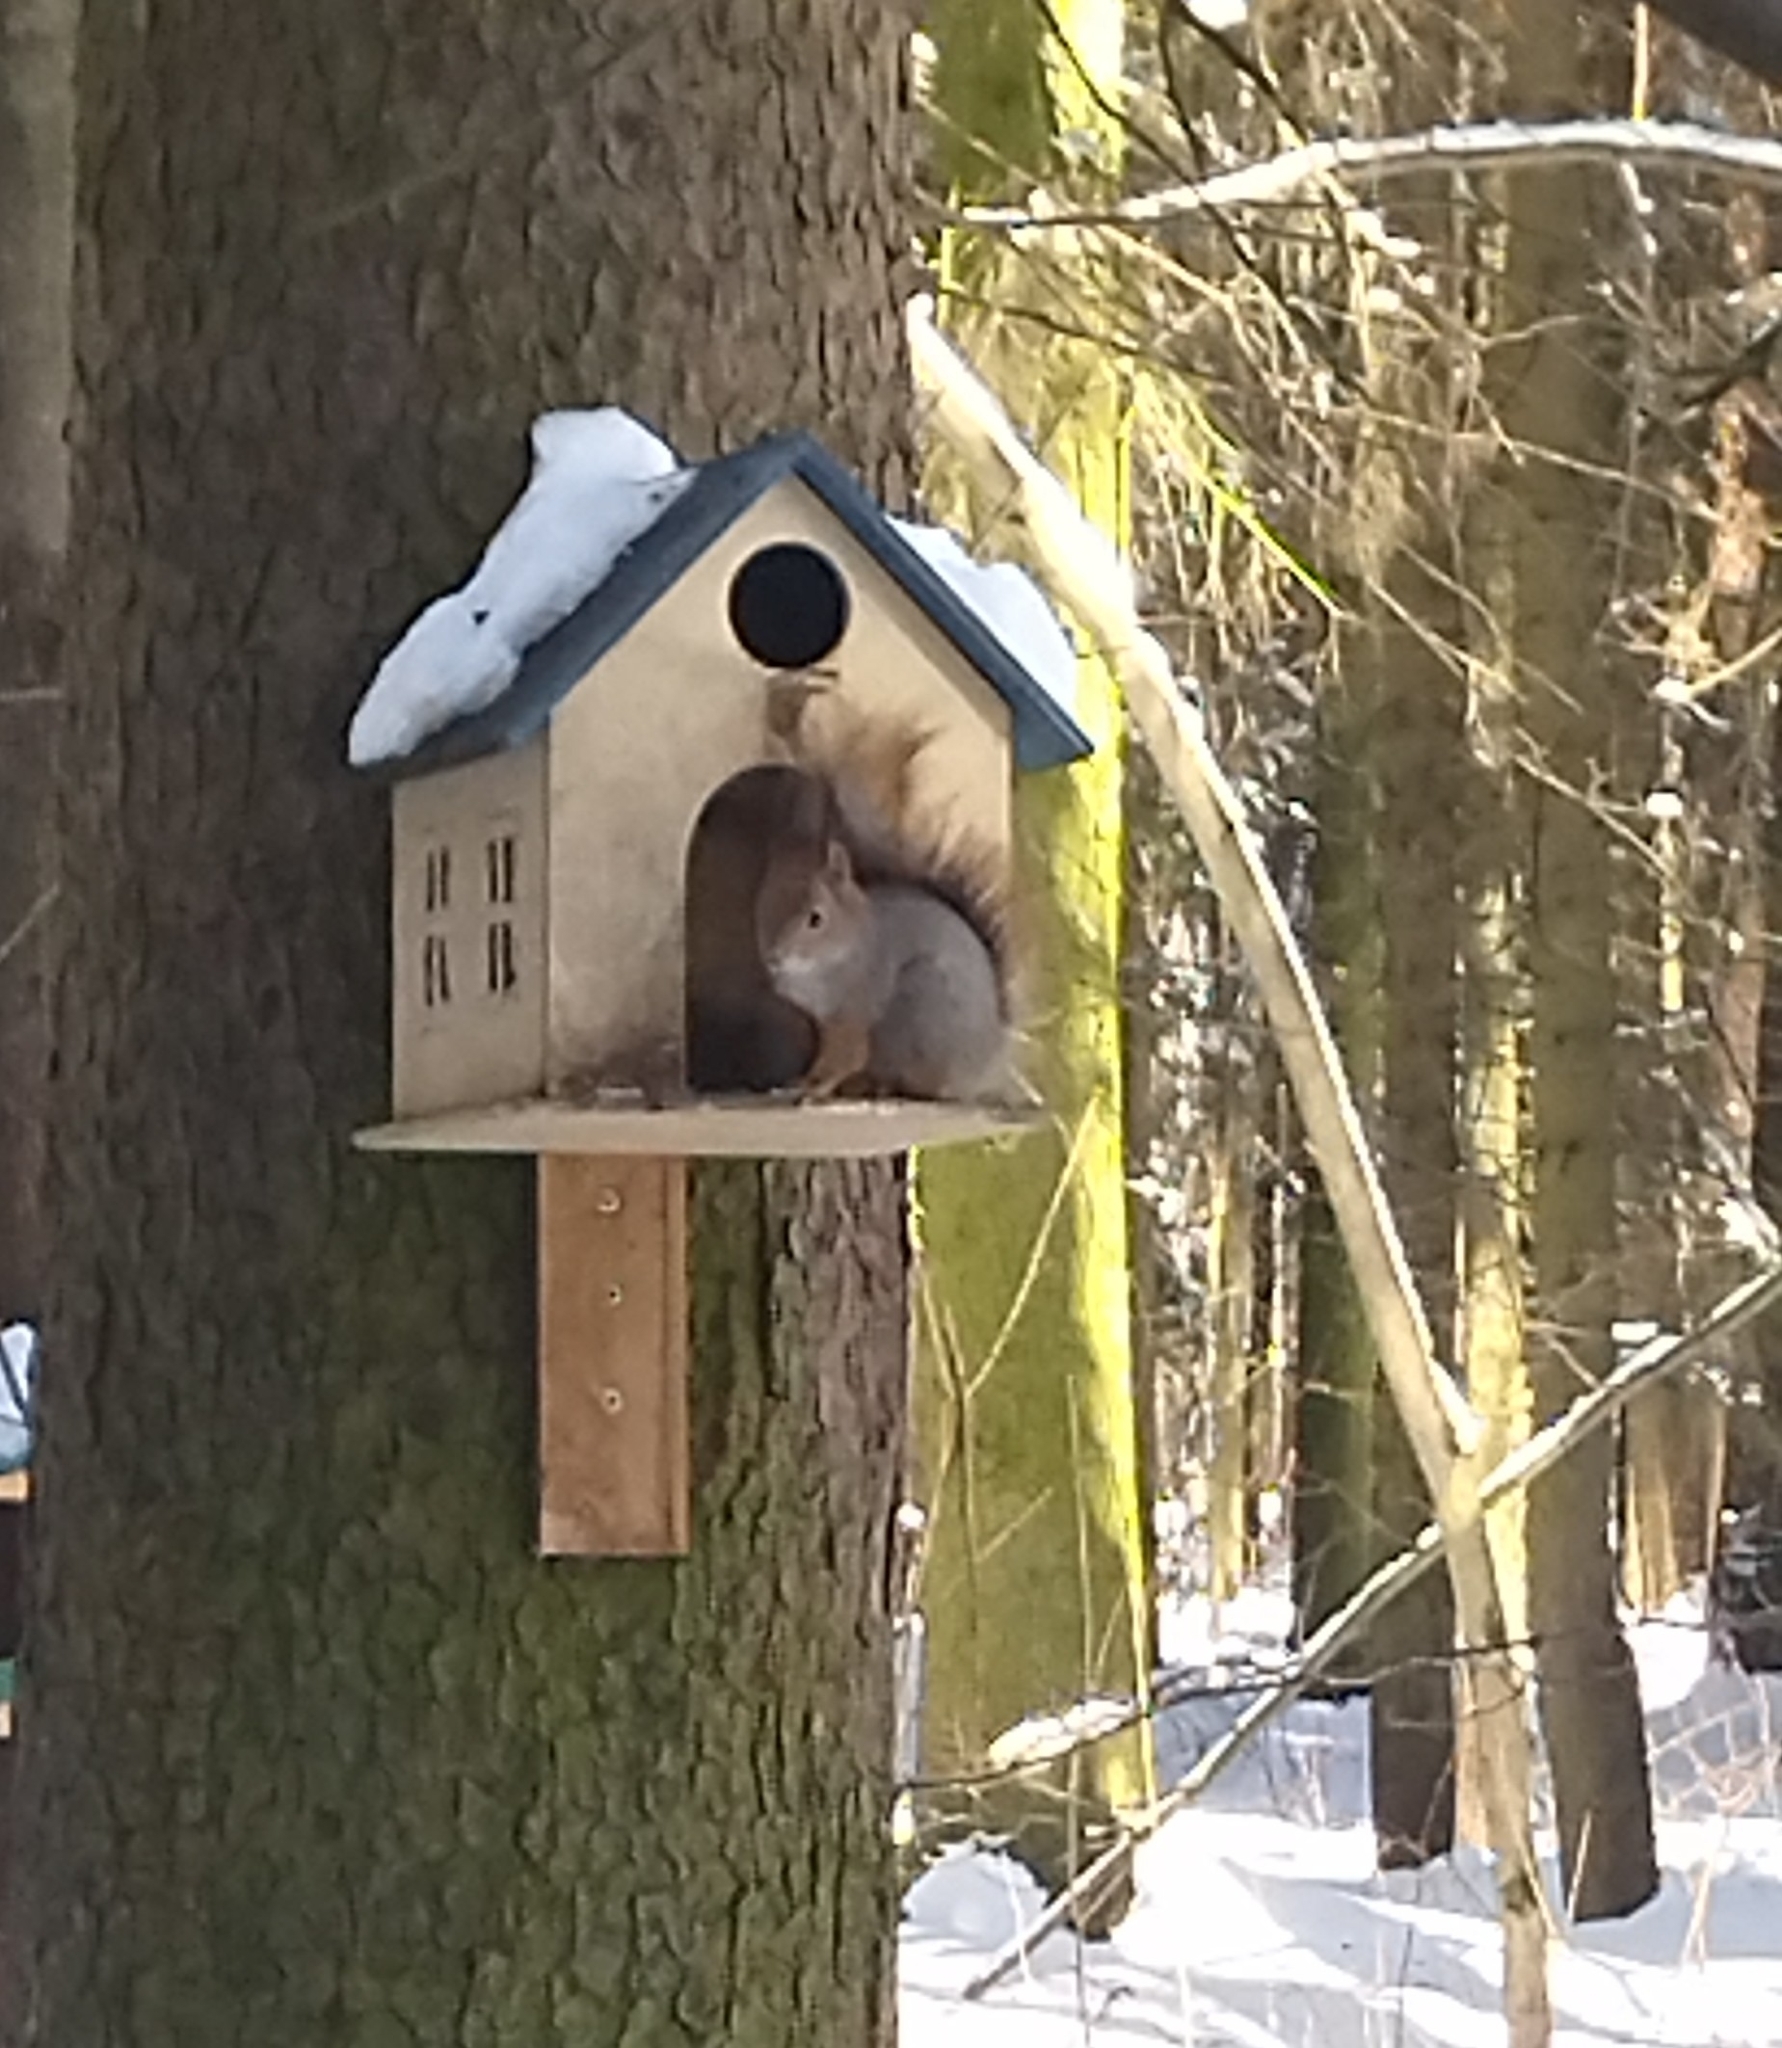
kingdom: Animalia
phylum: Chordata
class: Mammalia
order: Rodentia
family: Sciuridae
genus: Sciurus
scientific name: Sciurus vulgaris
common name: Eurasian red squirrel
